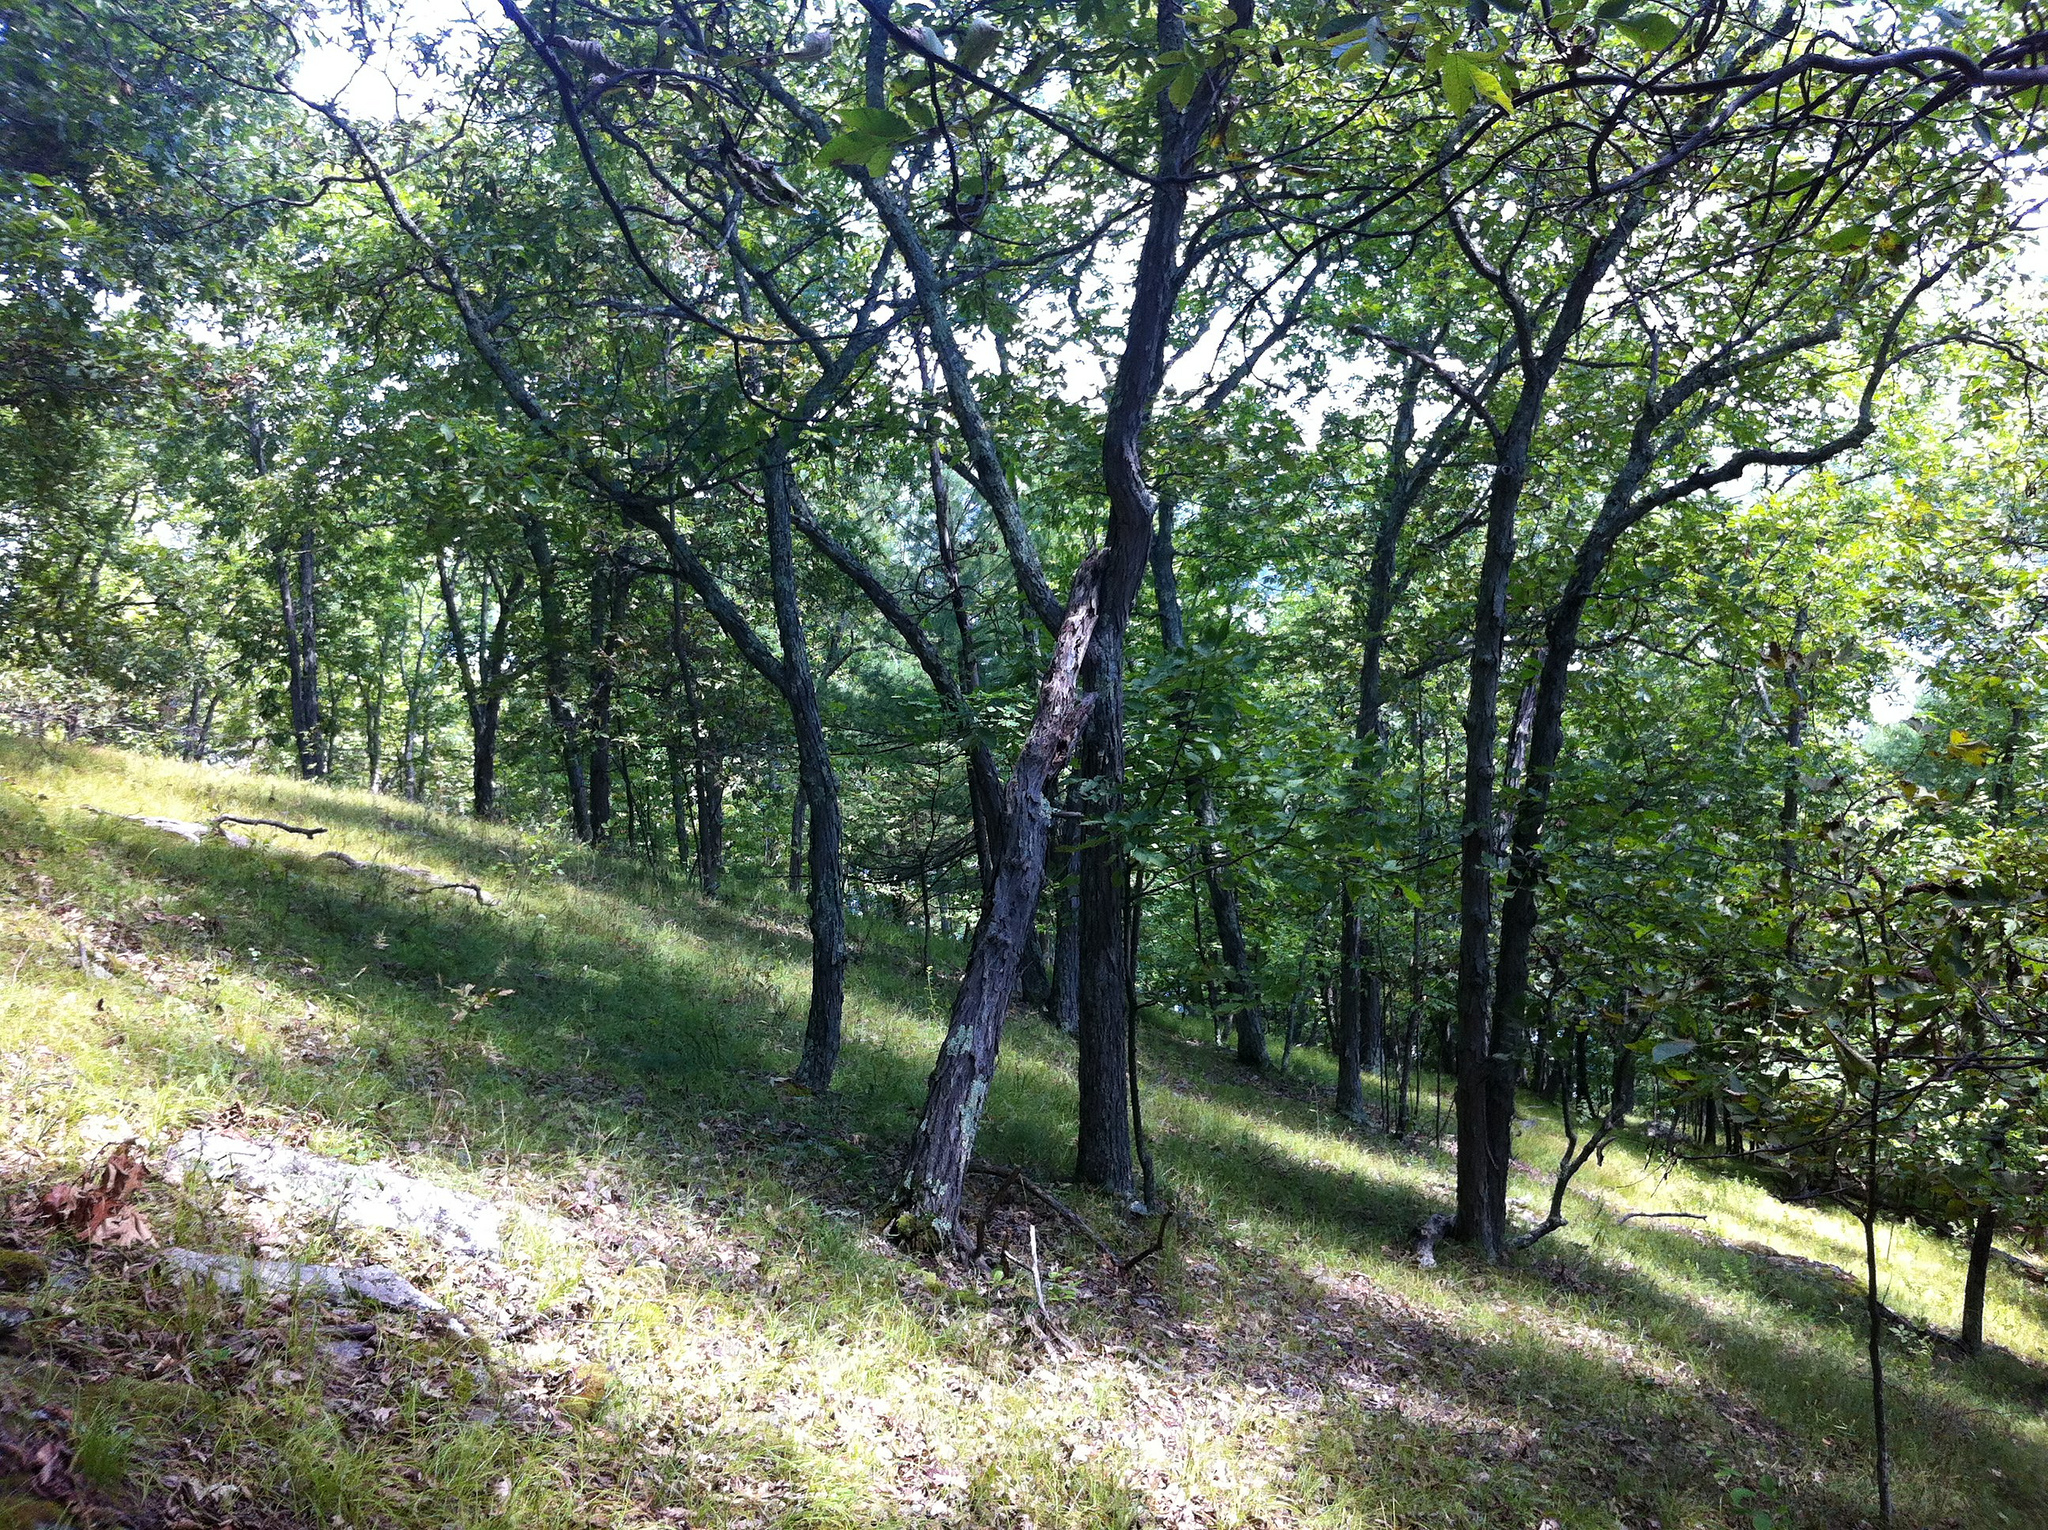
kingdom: Plantae
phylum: Tracheophyta
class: Magnoliopsida
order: Fagales
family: Juglandaceae
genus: Carya
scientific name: Carya ovata
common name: Shagbark hickory
